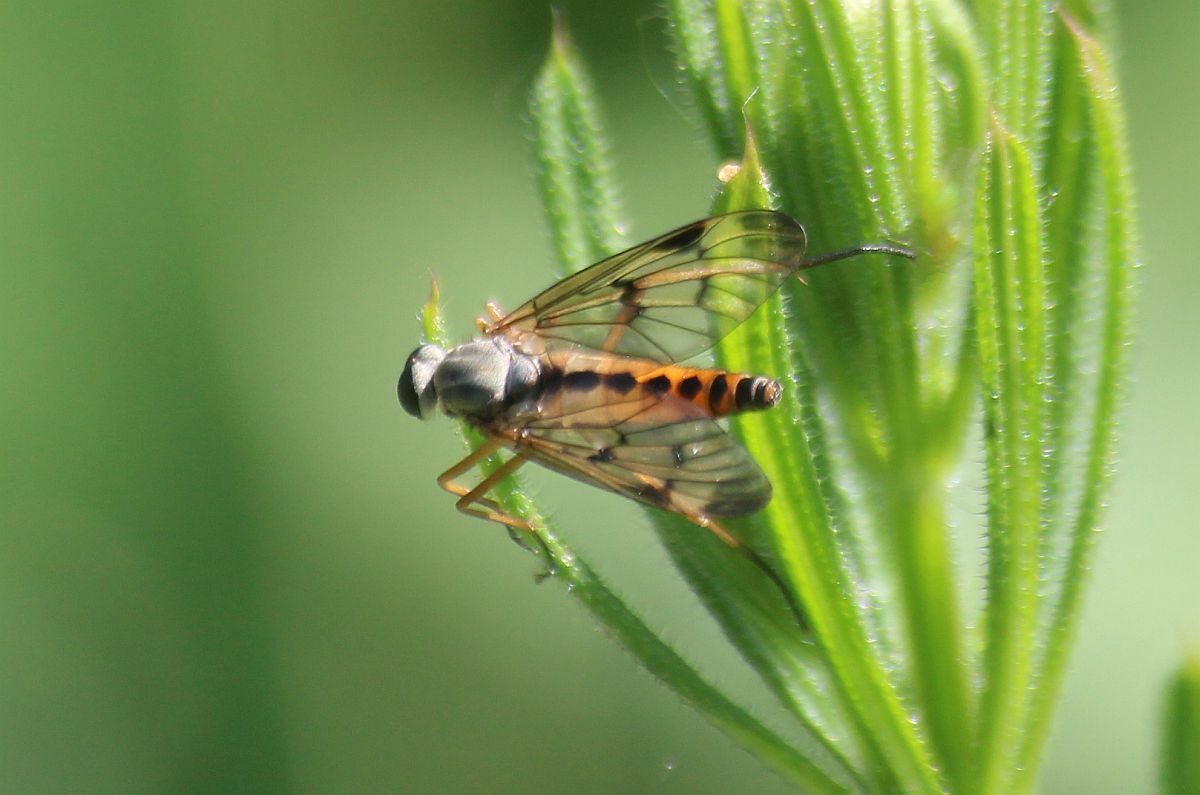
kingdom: Animalia
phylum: Arthropoda
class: Insecta
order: Diptera
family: Rhagionidae
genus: Rhagio
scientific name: Rhagio scolopacea
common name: Downlooker snipefly
